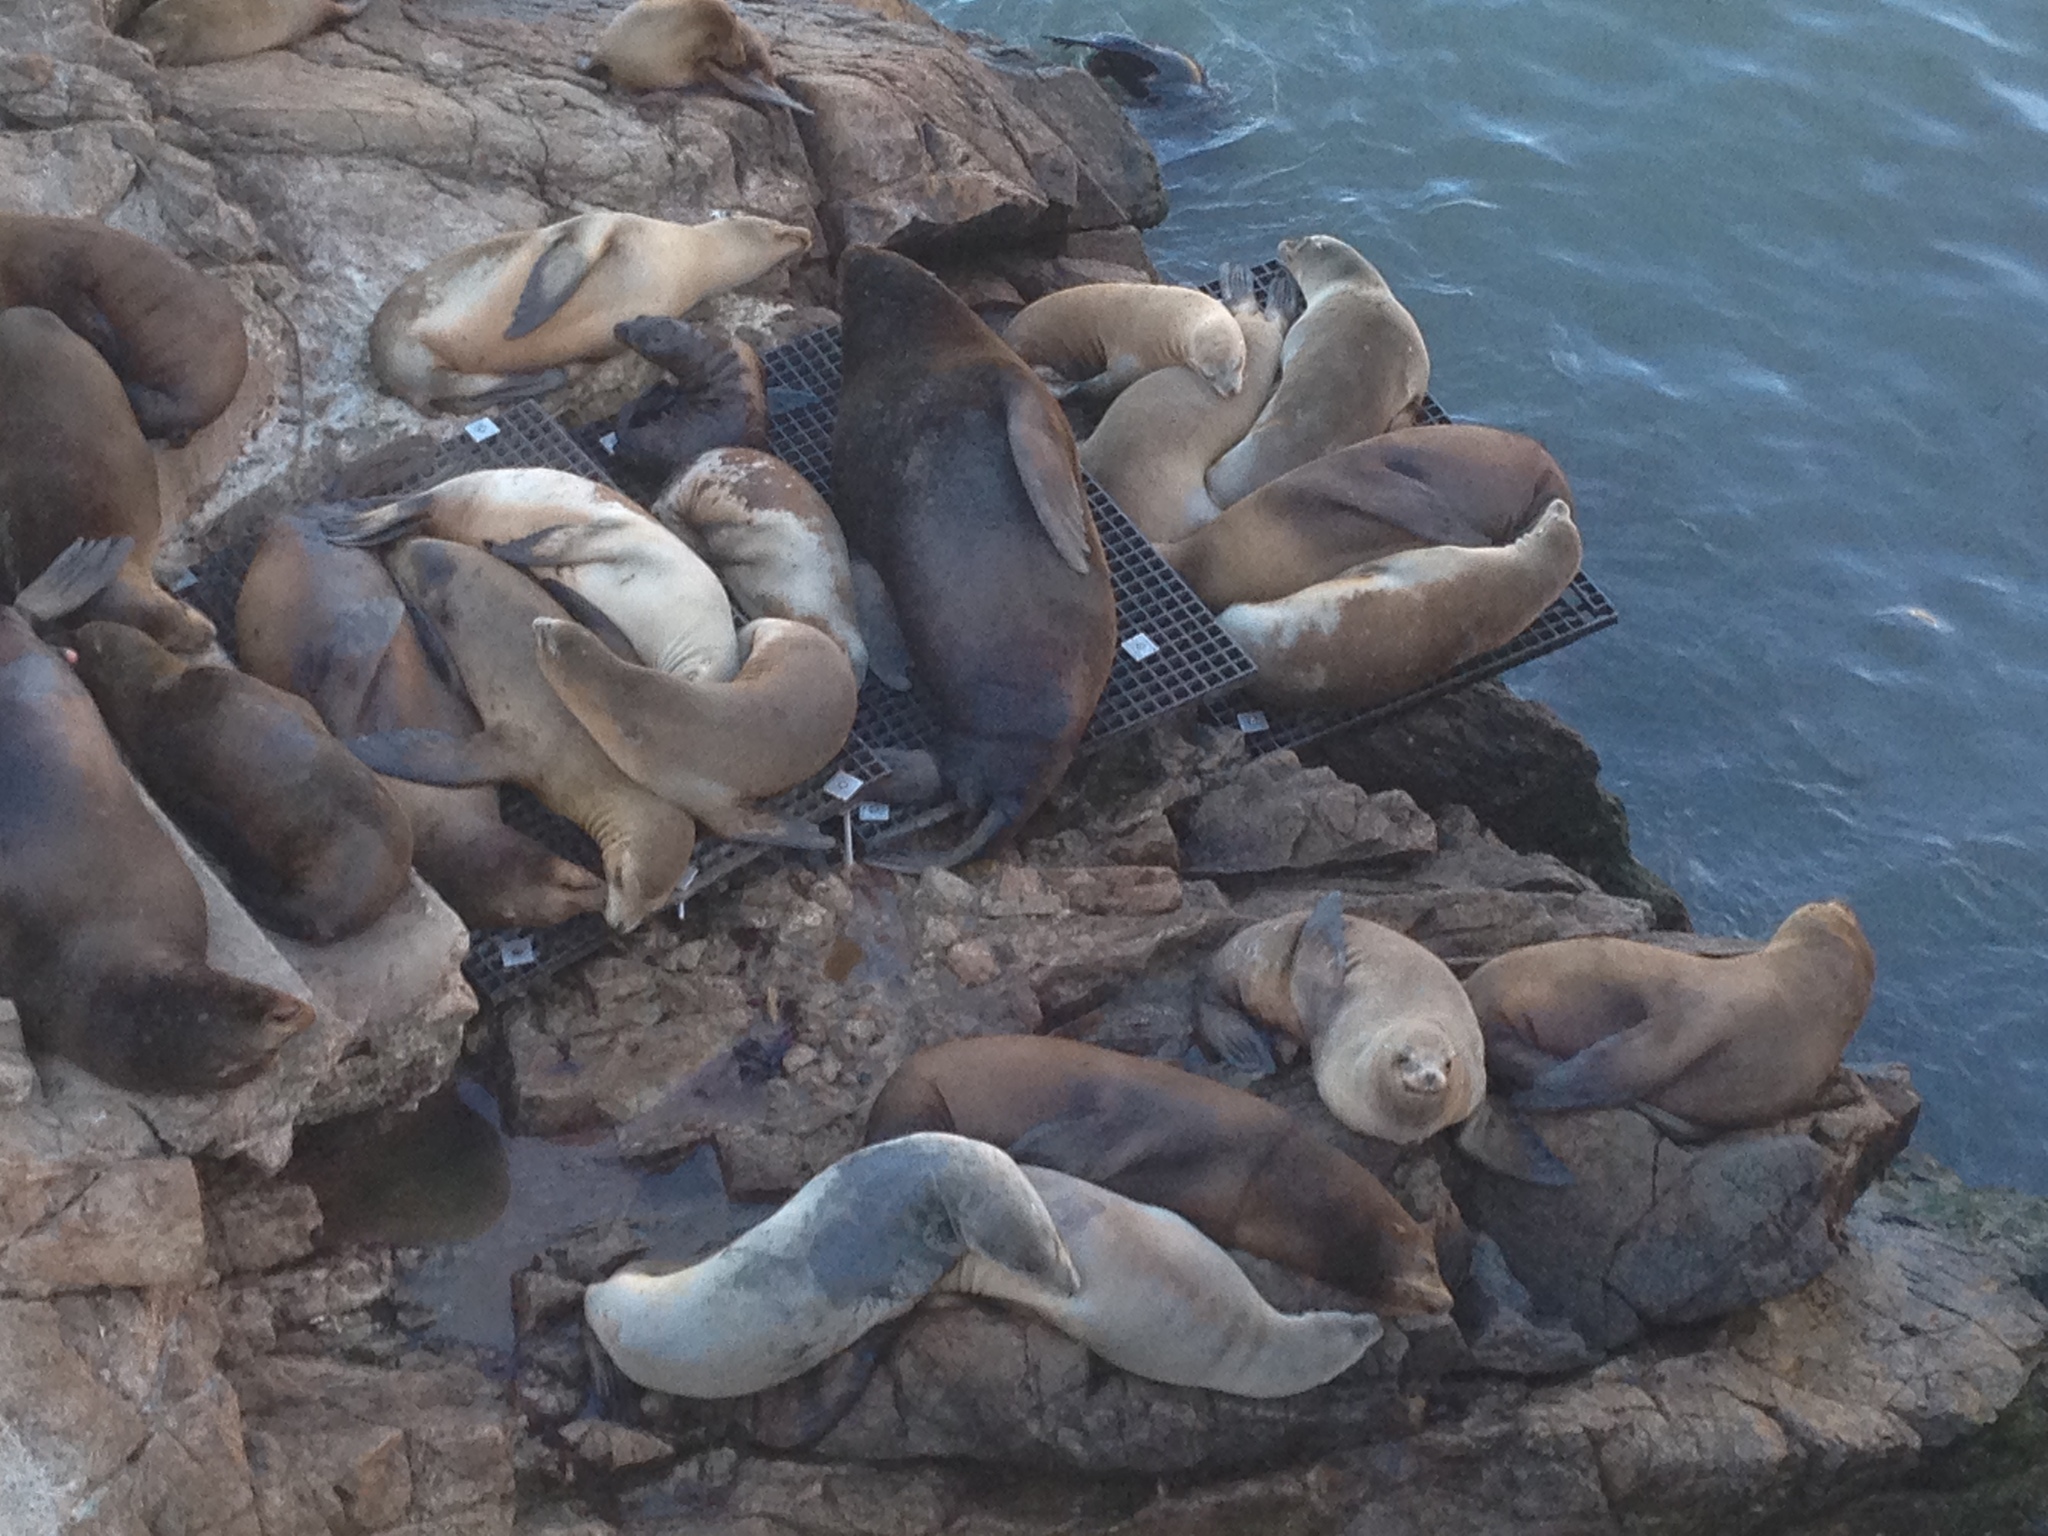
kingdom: Animalia
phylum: Chordata
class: Mammalia
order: Carnivora
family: Otariidae
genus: Zalophus
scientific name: Zalophus californianus
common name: California sea lion
